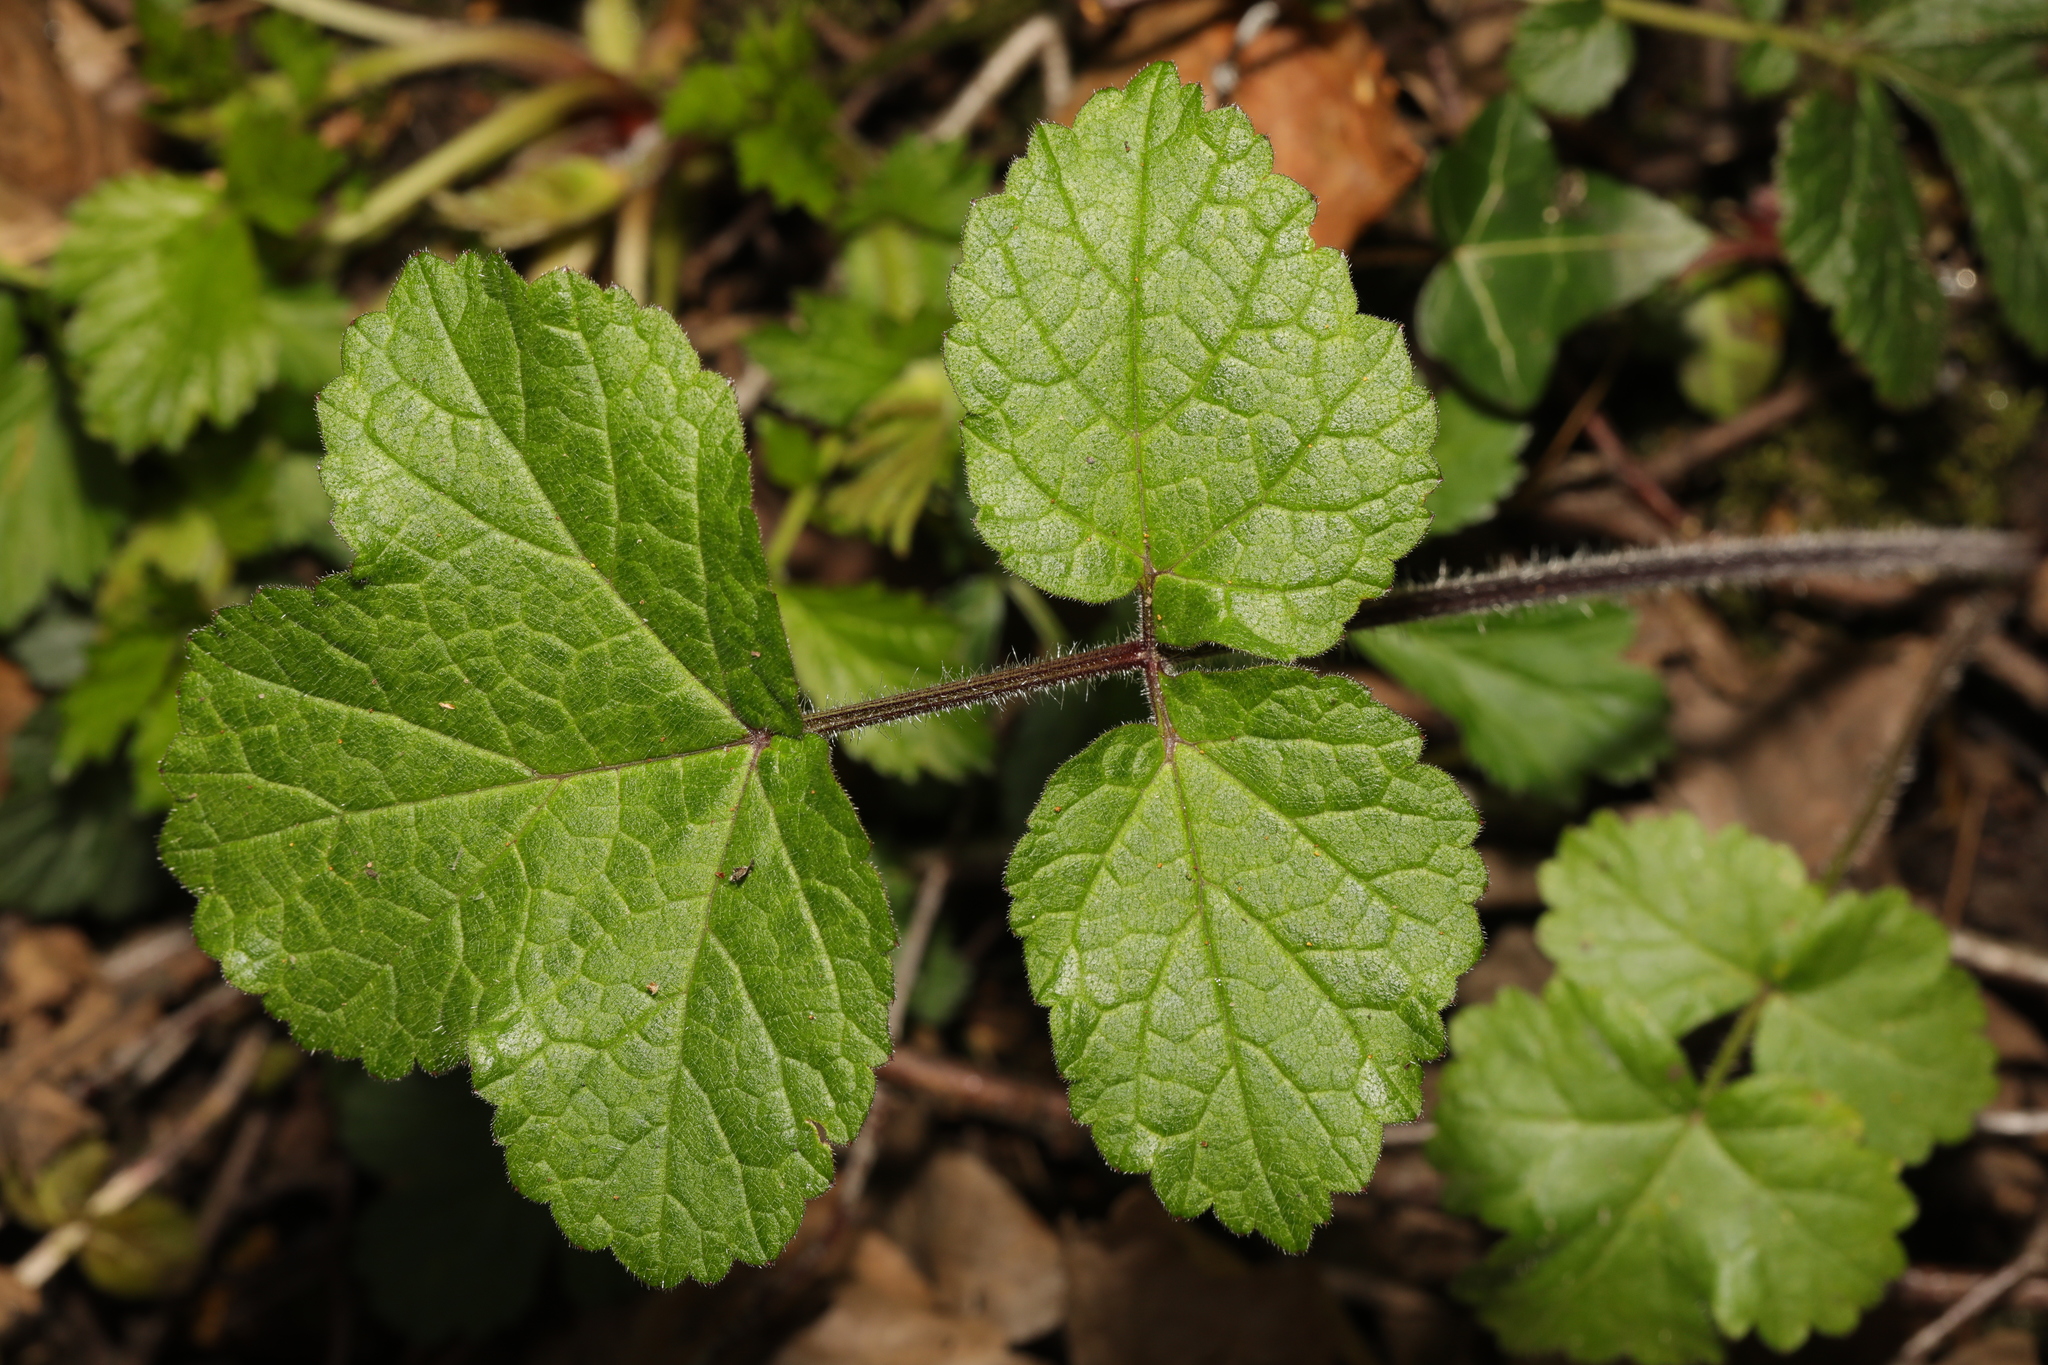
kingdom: Plantae
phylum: Tracheophyta
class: Magnoliopsida
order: Apiales
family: Apiaceae
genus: Heracleum
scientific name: Heracleum sphondylium
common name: Hogweed
